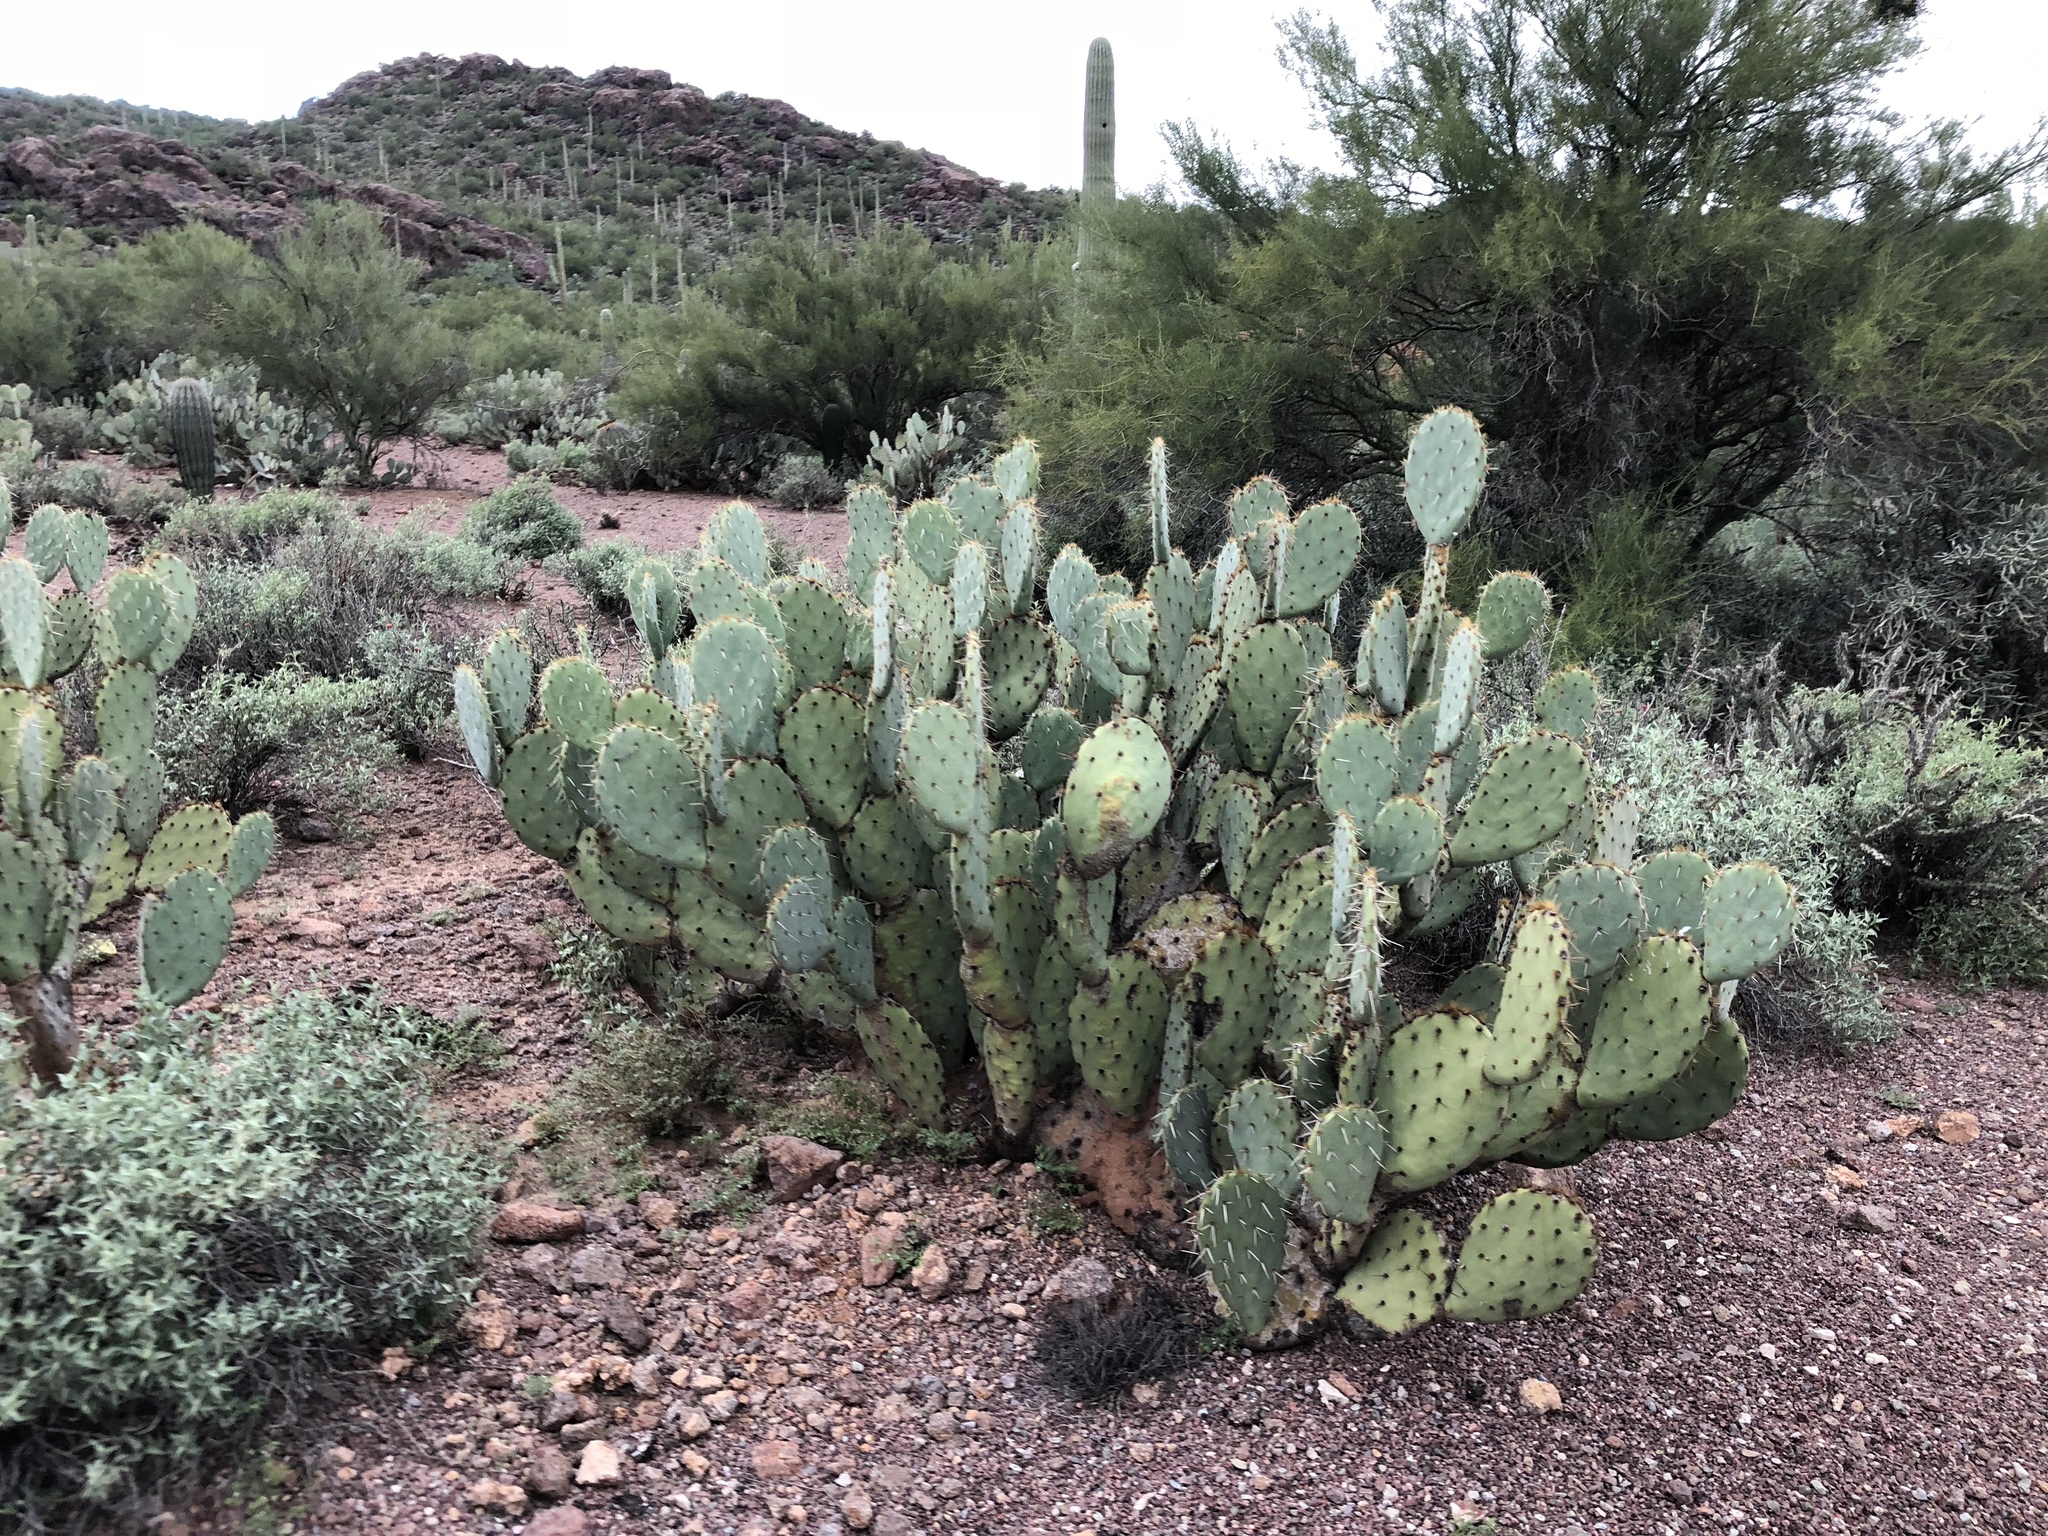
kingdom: Plantae
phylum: Tracheophyta
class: Magnoliopsida
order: Caryophyllales
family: Cactaceae
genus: Opuntia
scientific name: Opuntia engelmannii
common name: Cactus-apple
